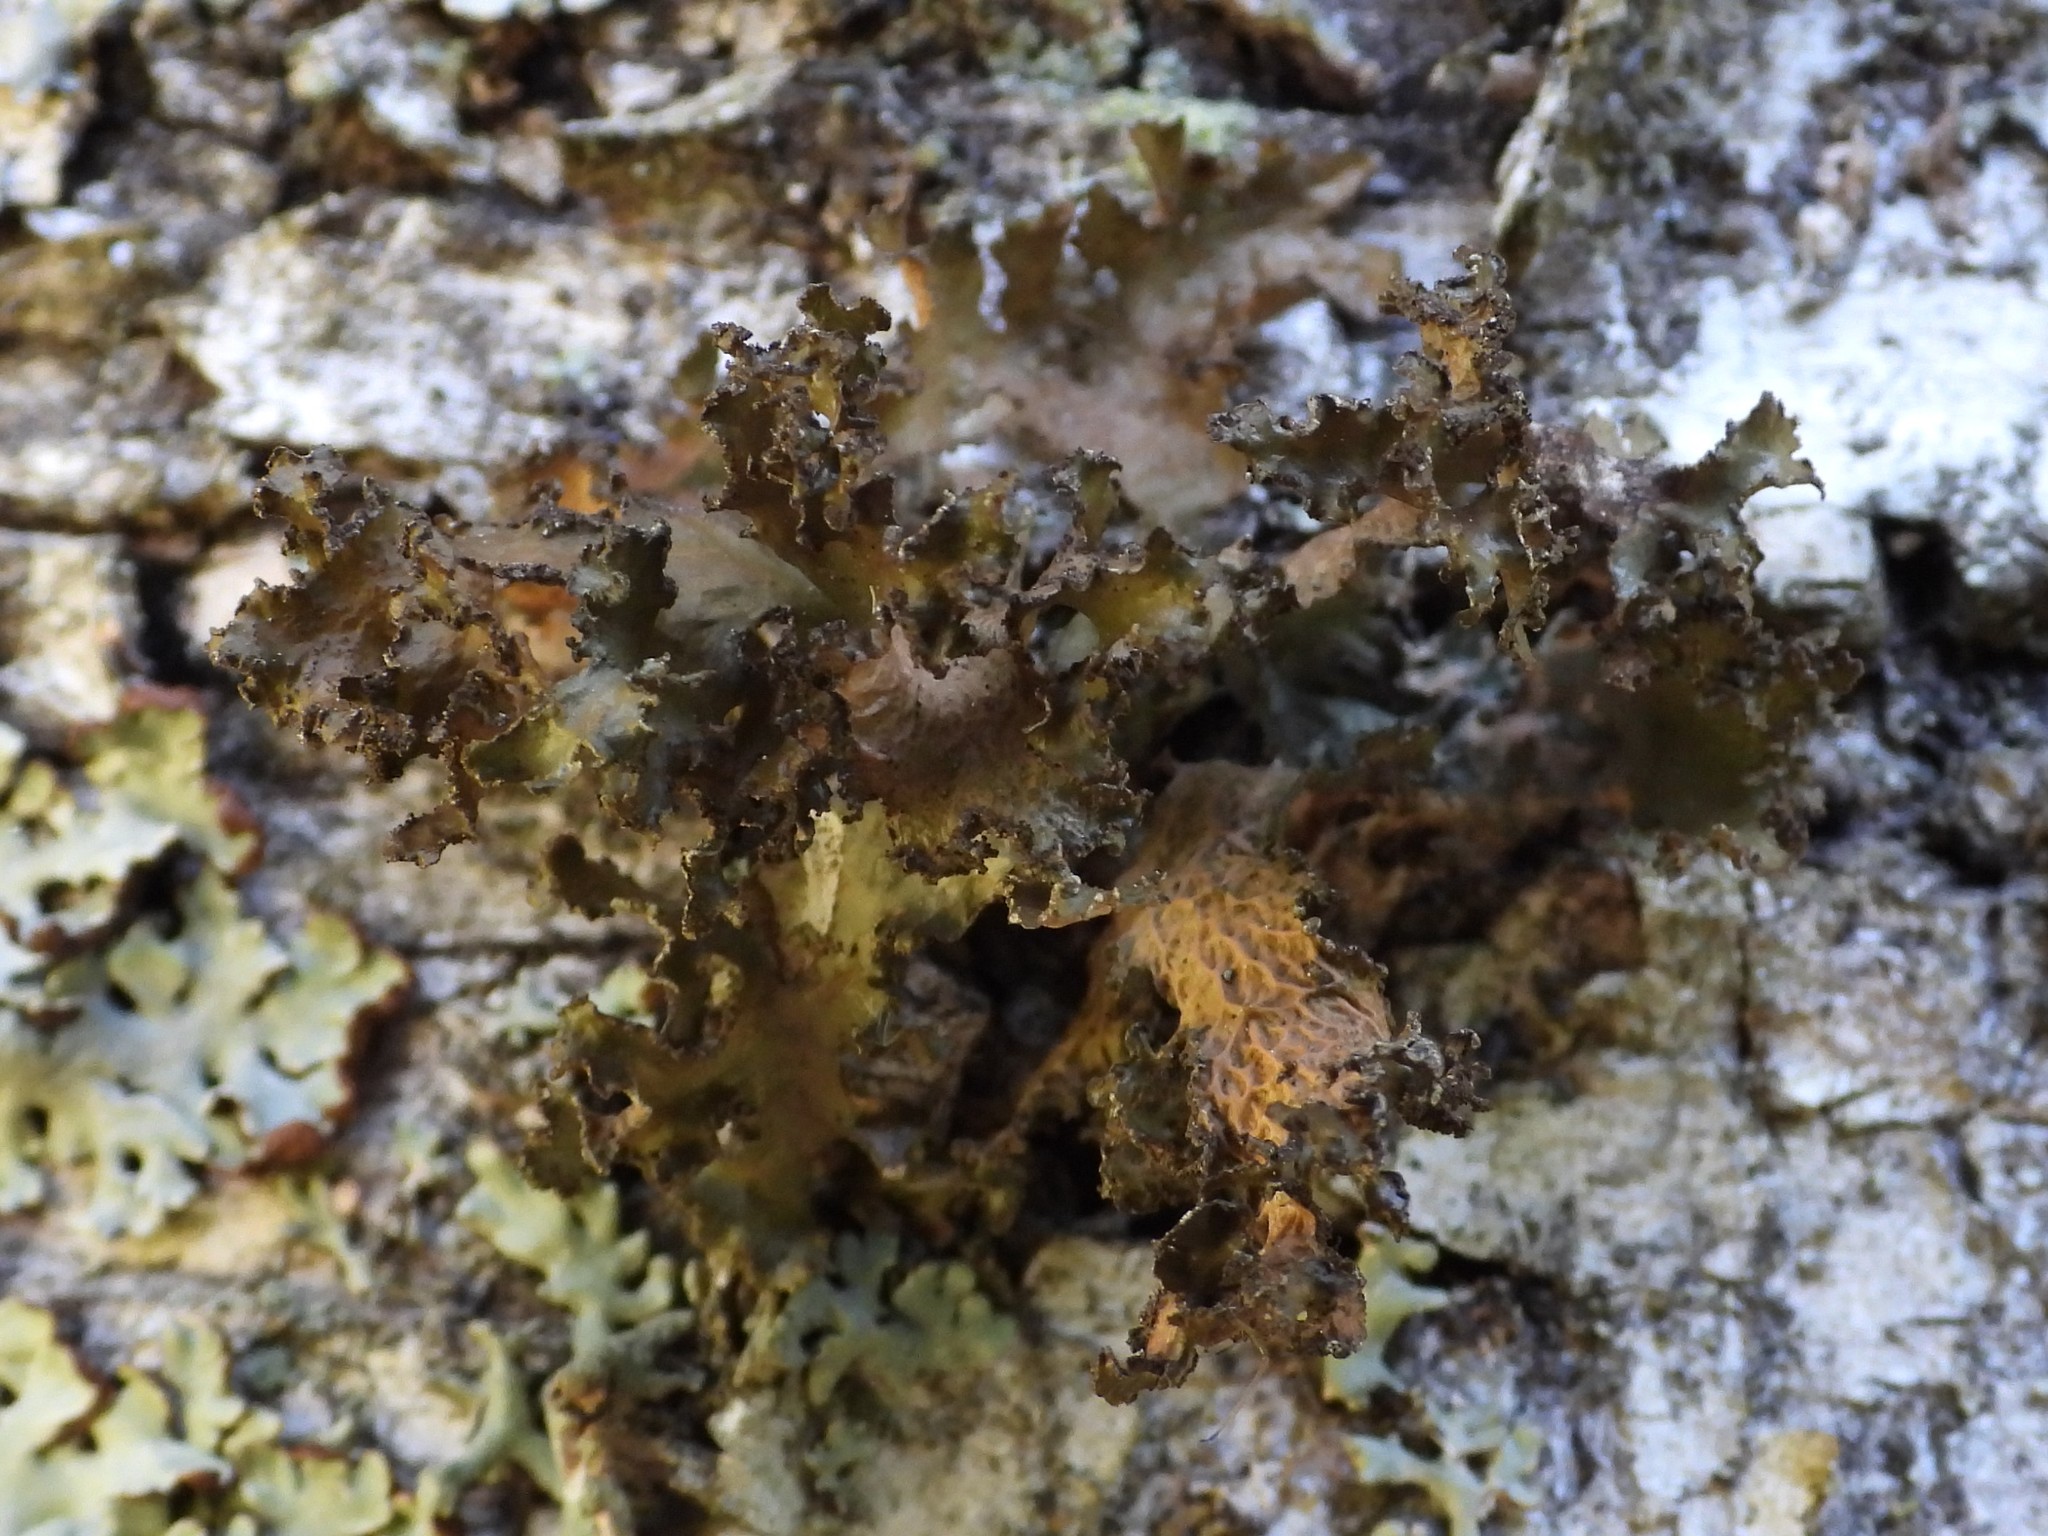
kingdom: Fungi
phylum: Ascomycota
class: Lecanoromycetes
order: Lecanorales
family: Parmeliaceae
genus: Nephromopsis
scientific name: Nephromopsis chlorophylla
